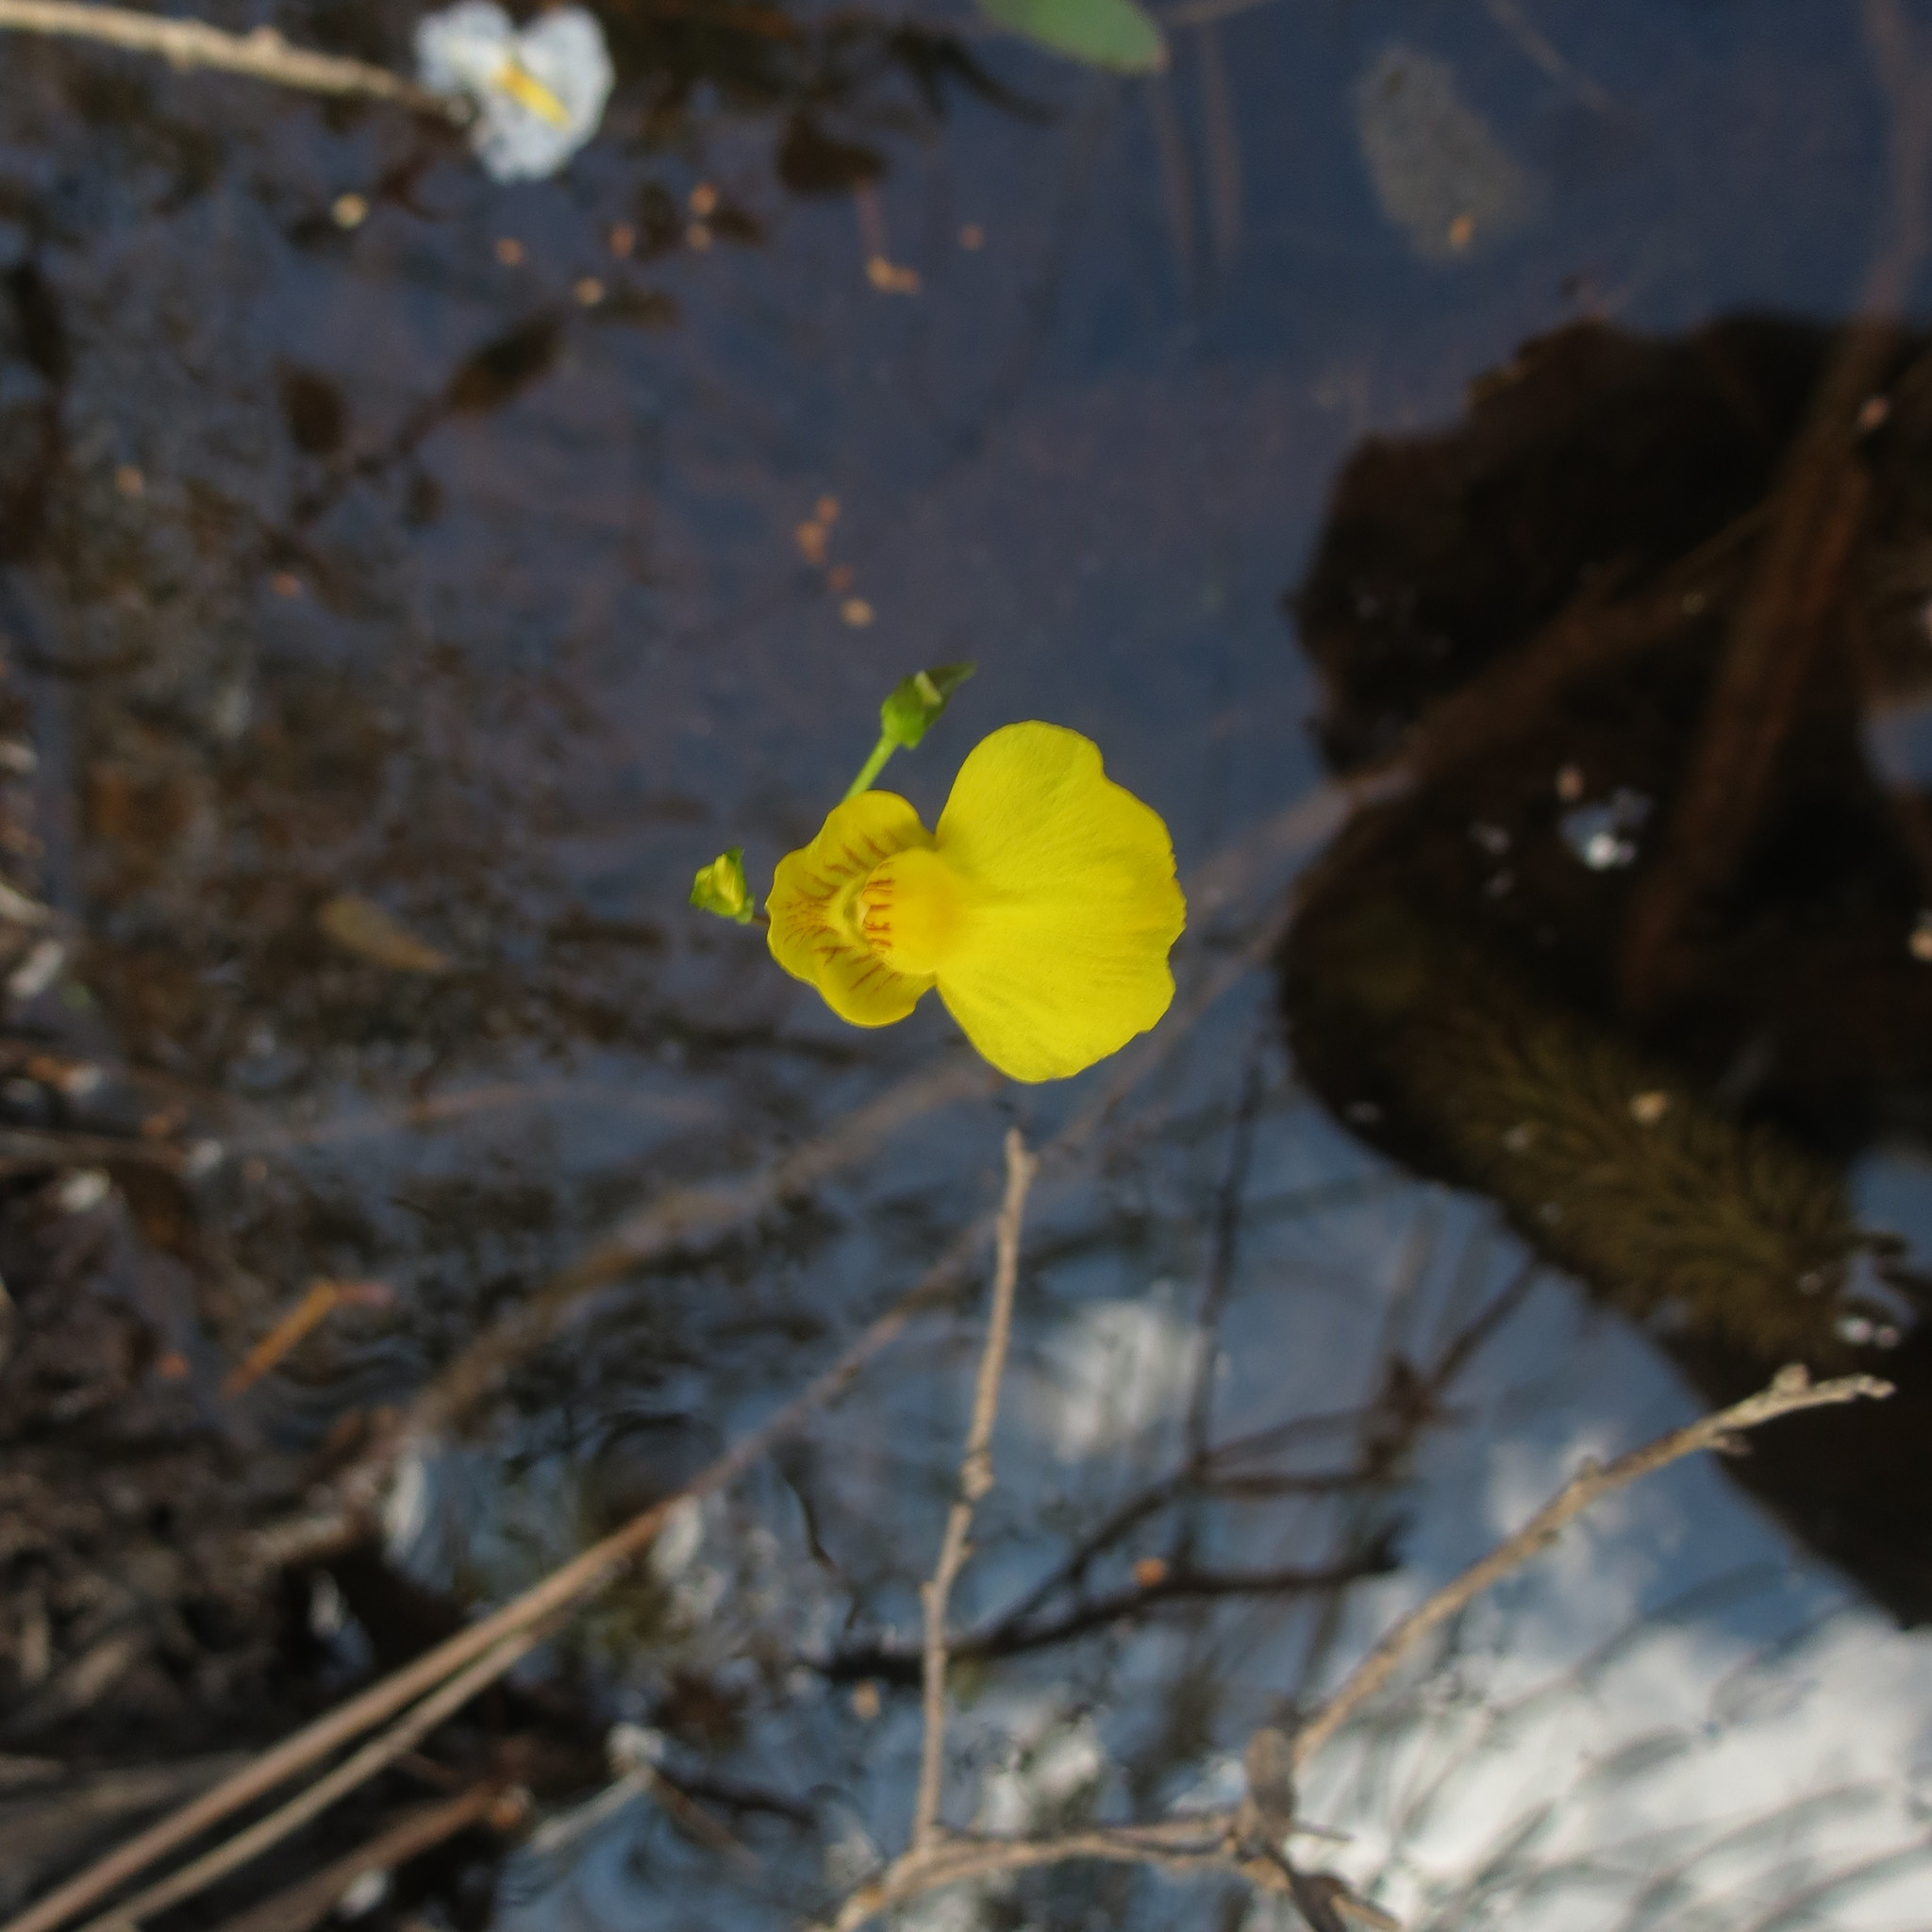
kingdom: Plantae
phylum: Tracheophyta
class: Magnoliopsida
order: Lamiales
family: Lentibulariaceae
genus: Utricularia
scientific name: Utricularia intermedia
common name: Intermediate bladderwort
